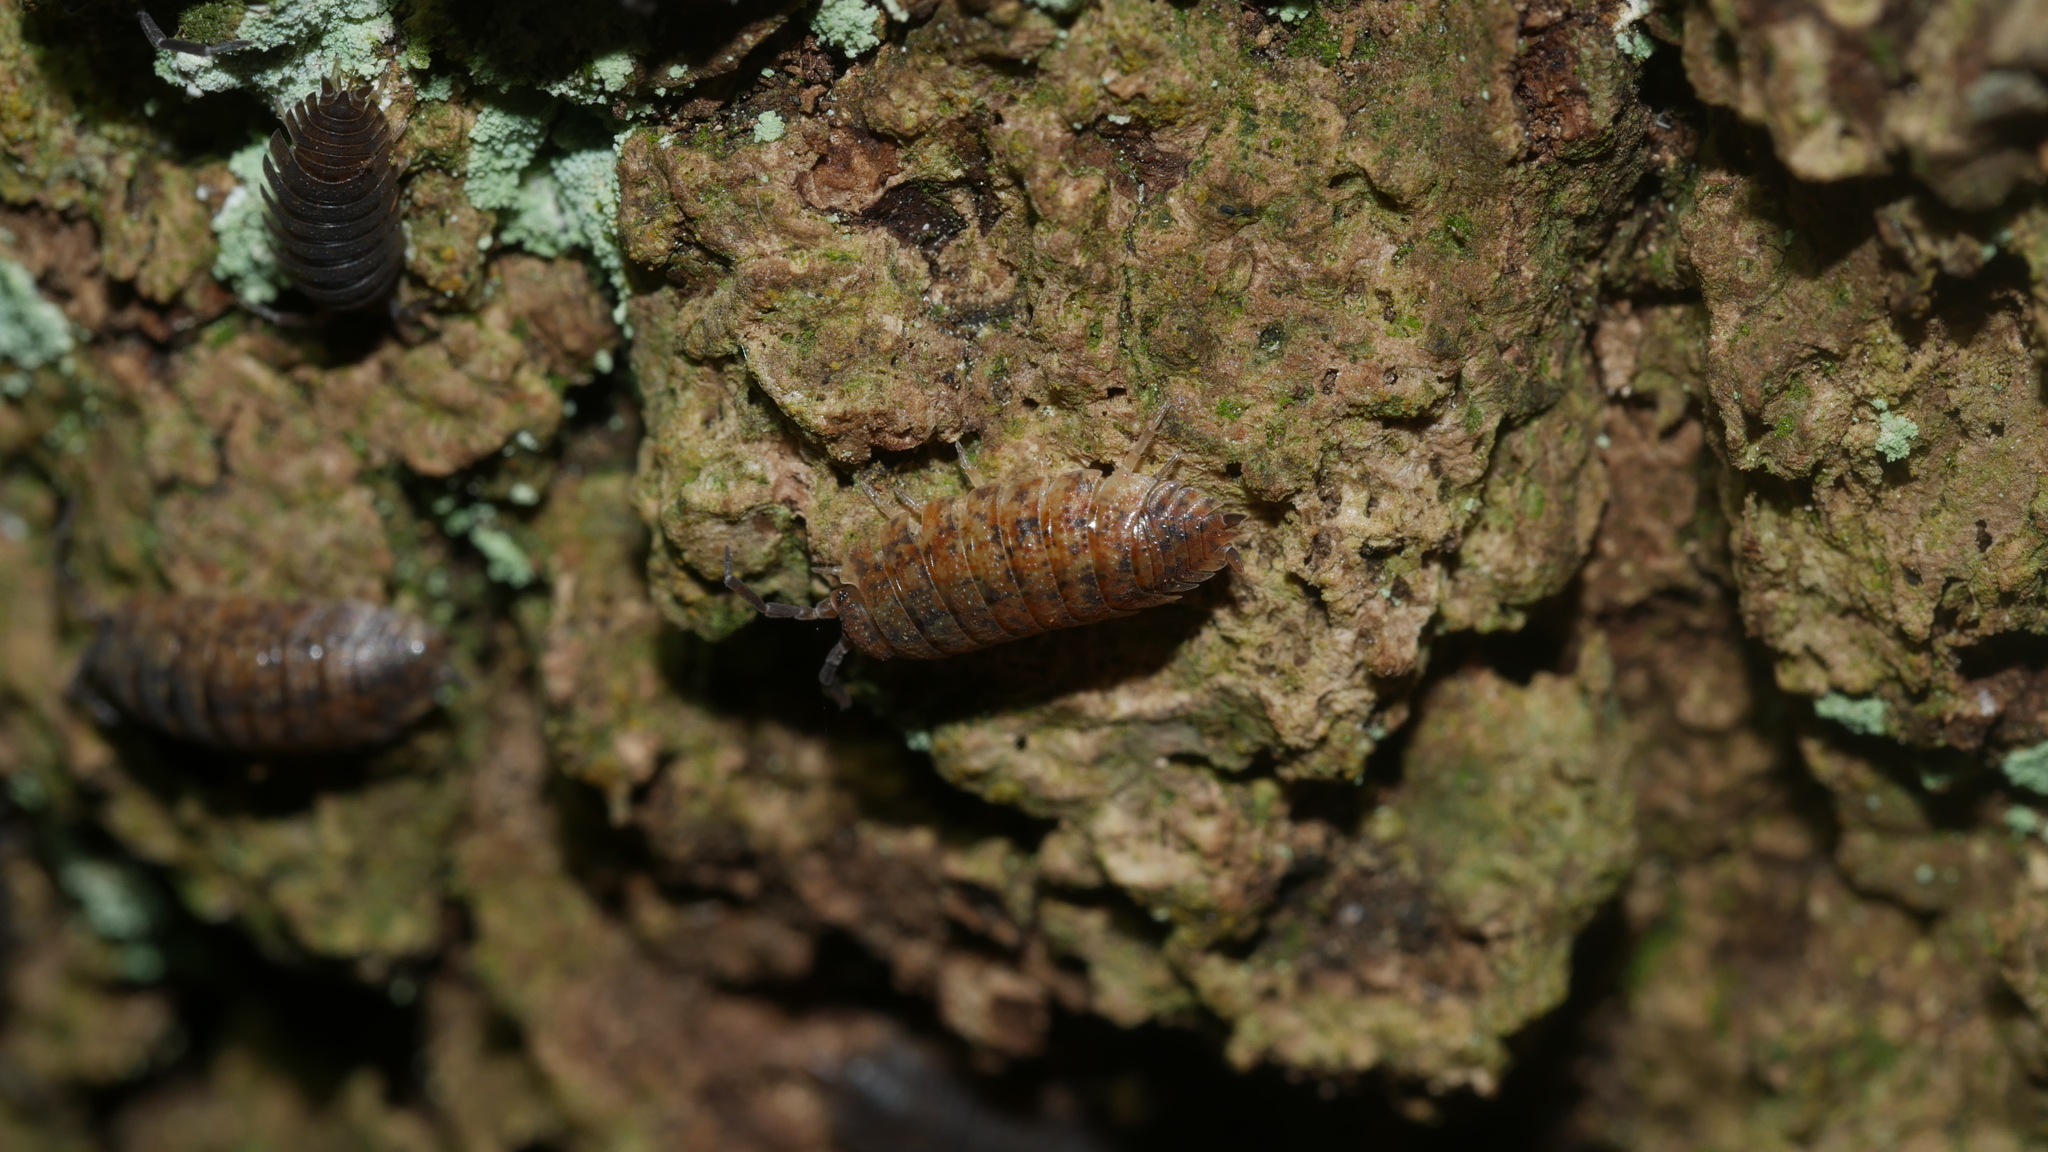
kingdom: Animalia
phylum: Arthropoda
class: Malacostraca
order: Isopoda
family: Porcellionidae
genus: Porcellio
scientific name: Porcellio scaber
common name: Common rough woodlouse
